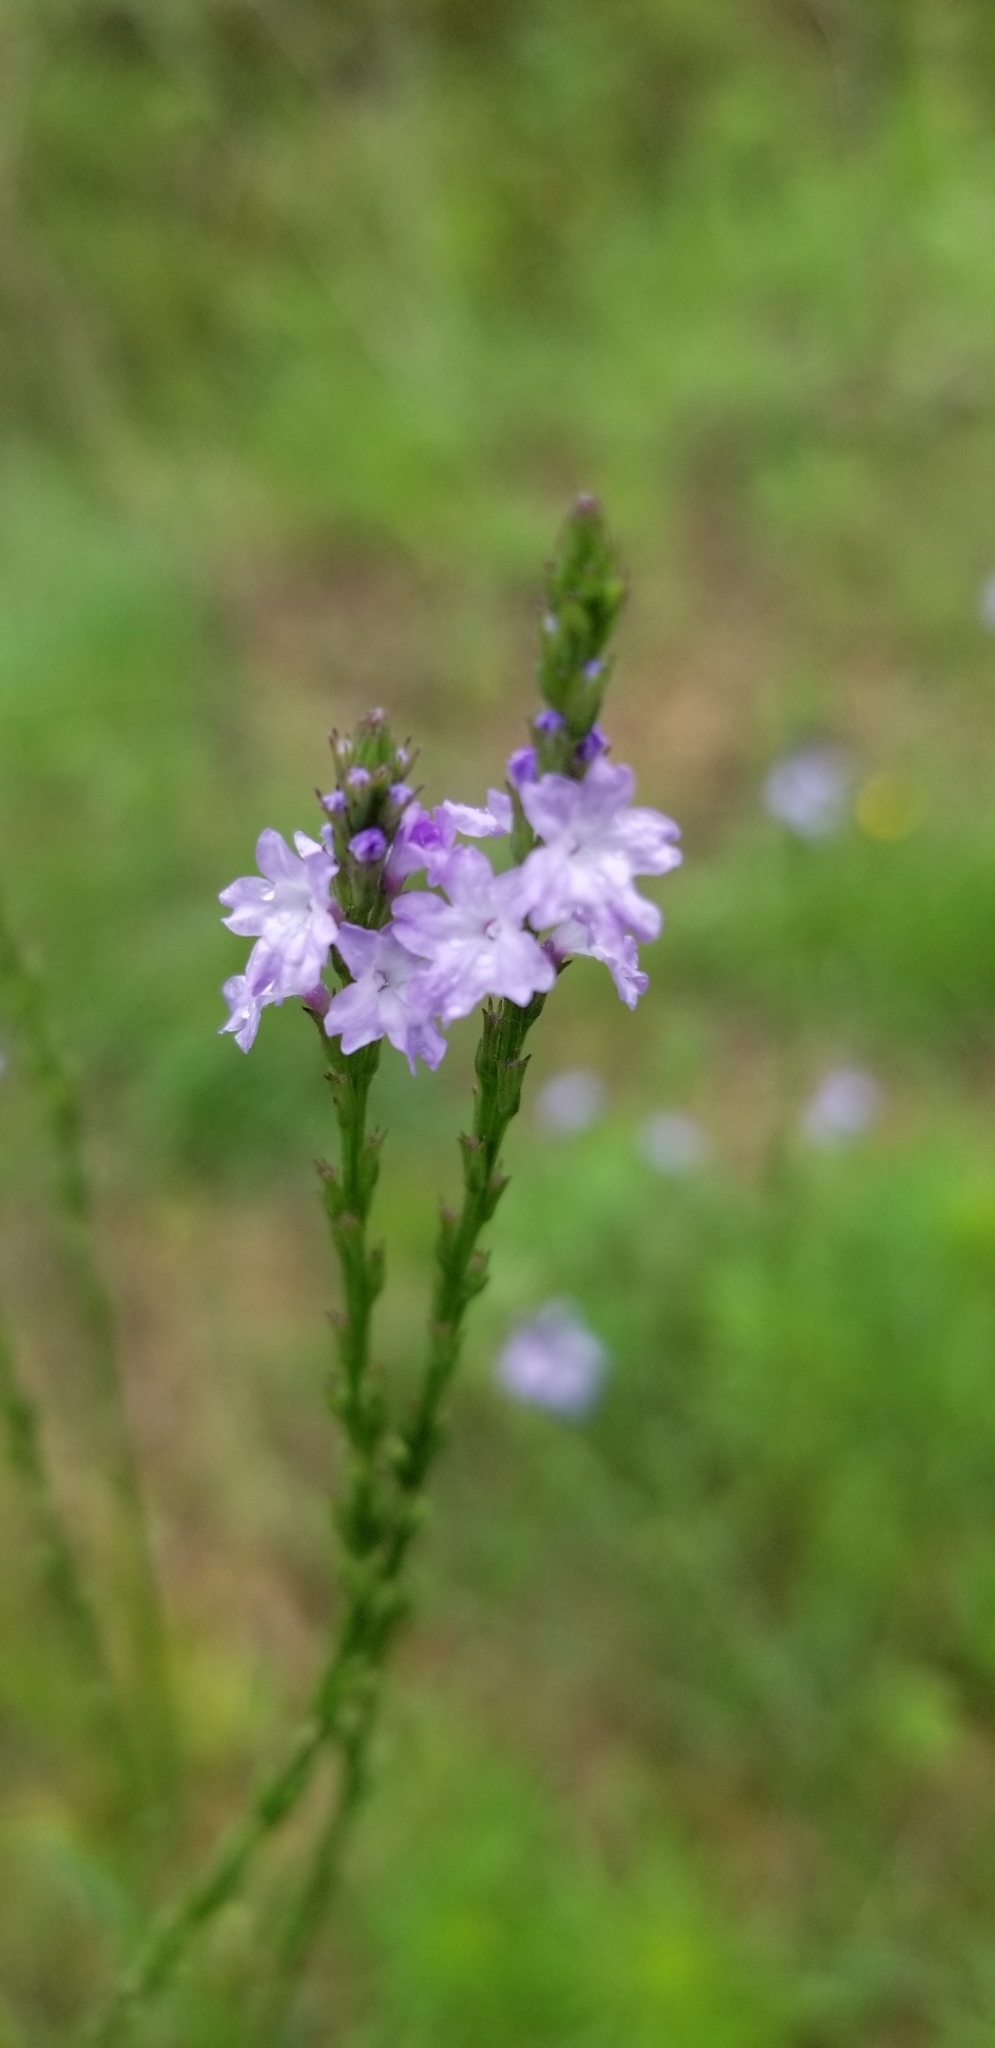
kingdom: Plantae
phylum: Tracheophyta
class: Magnoliopsida
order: Lamiales
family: Verbenaceae
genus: Verbena
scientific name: Verbena xutha
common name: Gulf vervain
